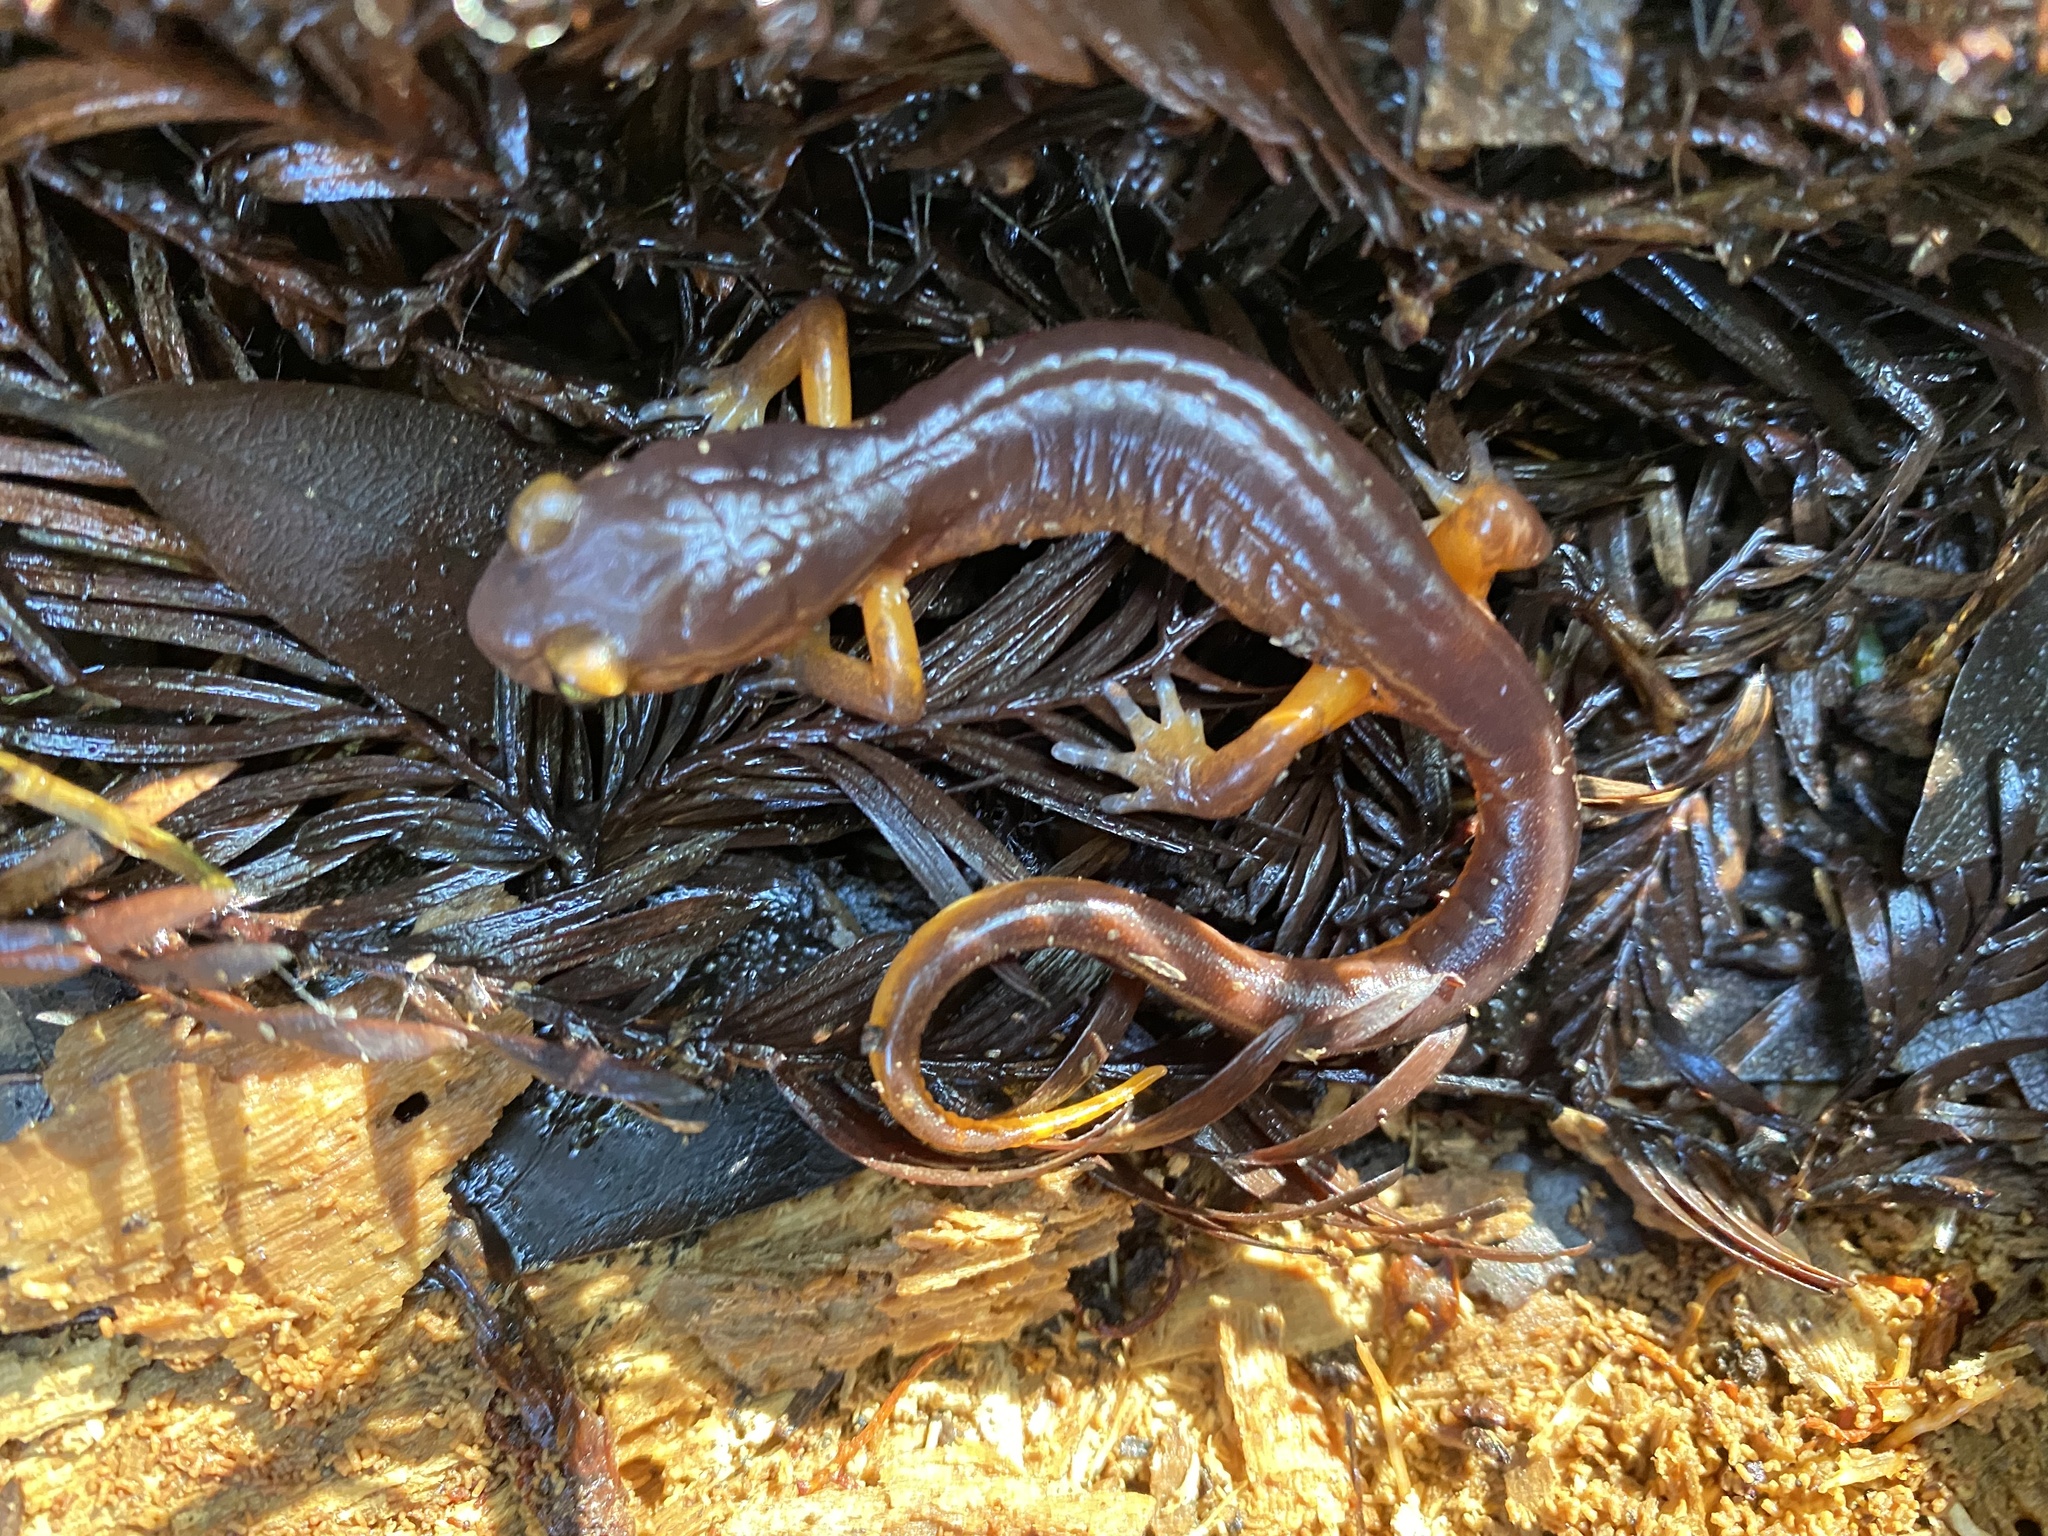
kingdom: Animalia
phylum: Chordata
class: Amphibia
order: Caudata
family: Plethodontidae
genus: Ensatina
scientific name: Ensatina eschscholtzii
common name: Ensatina
